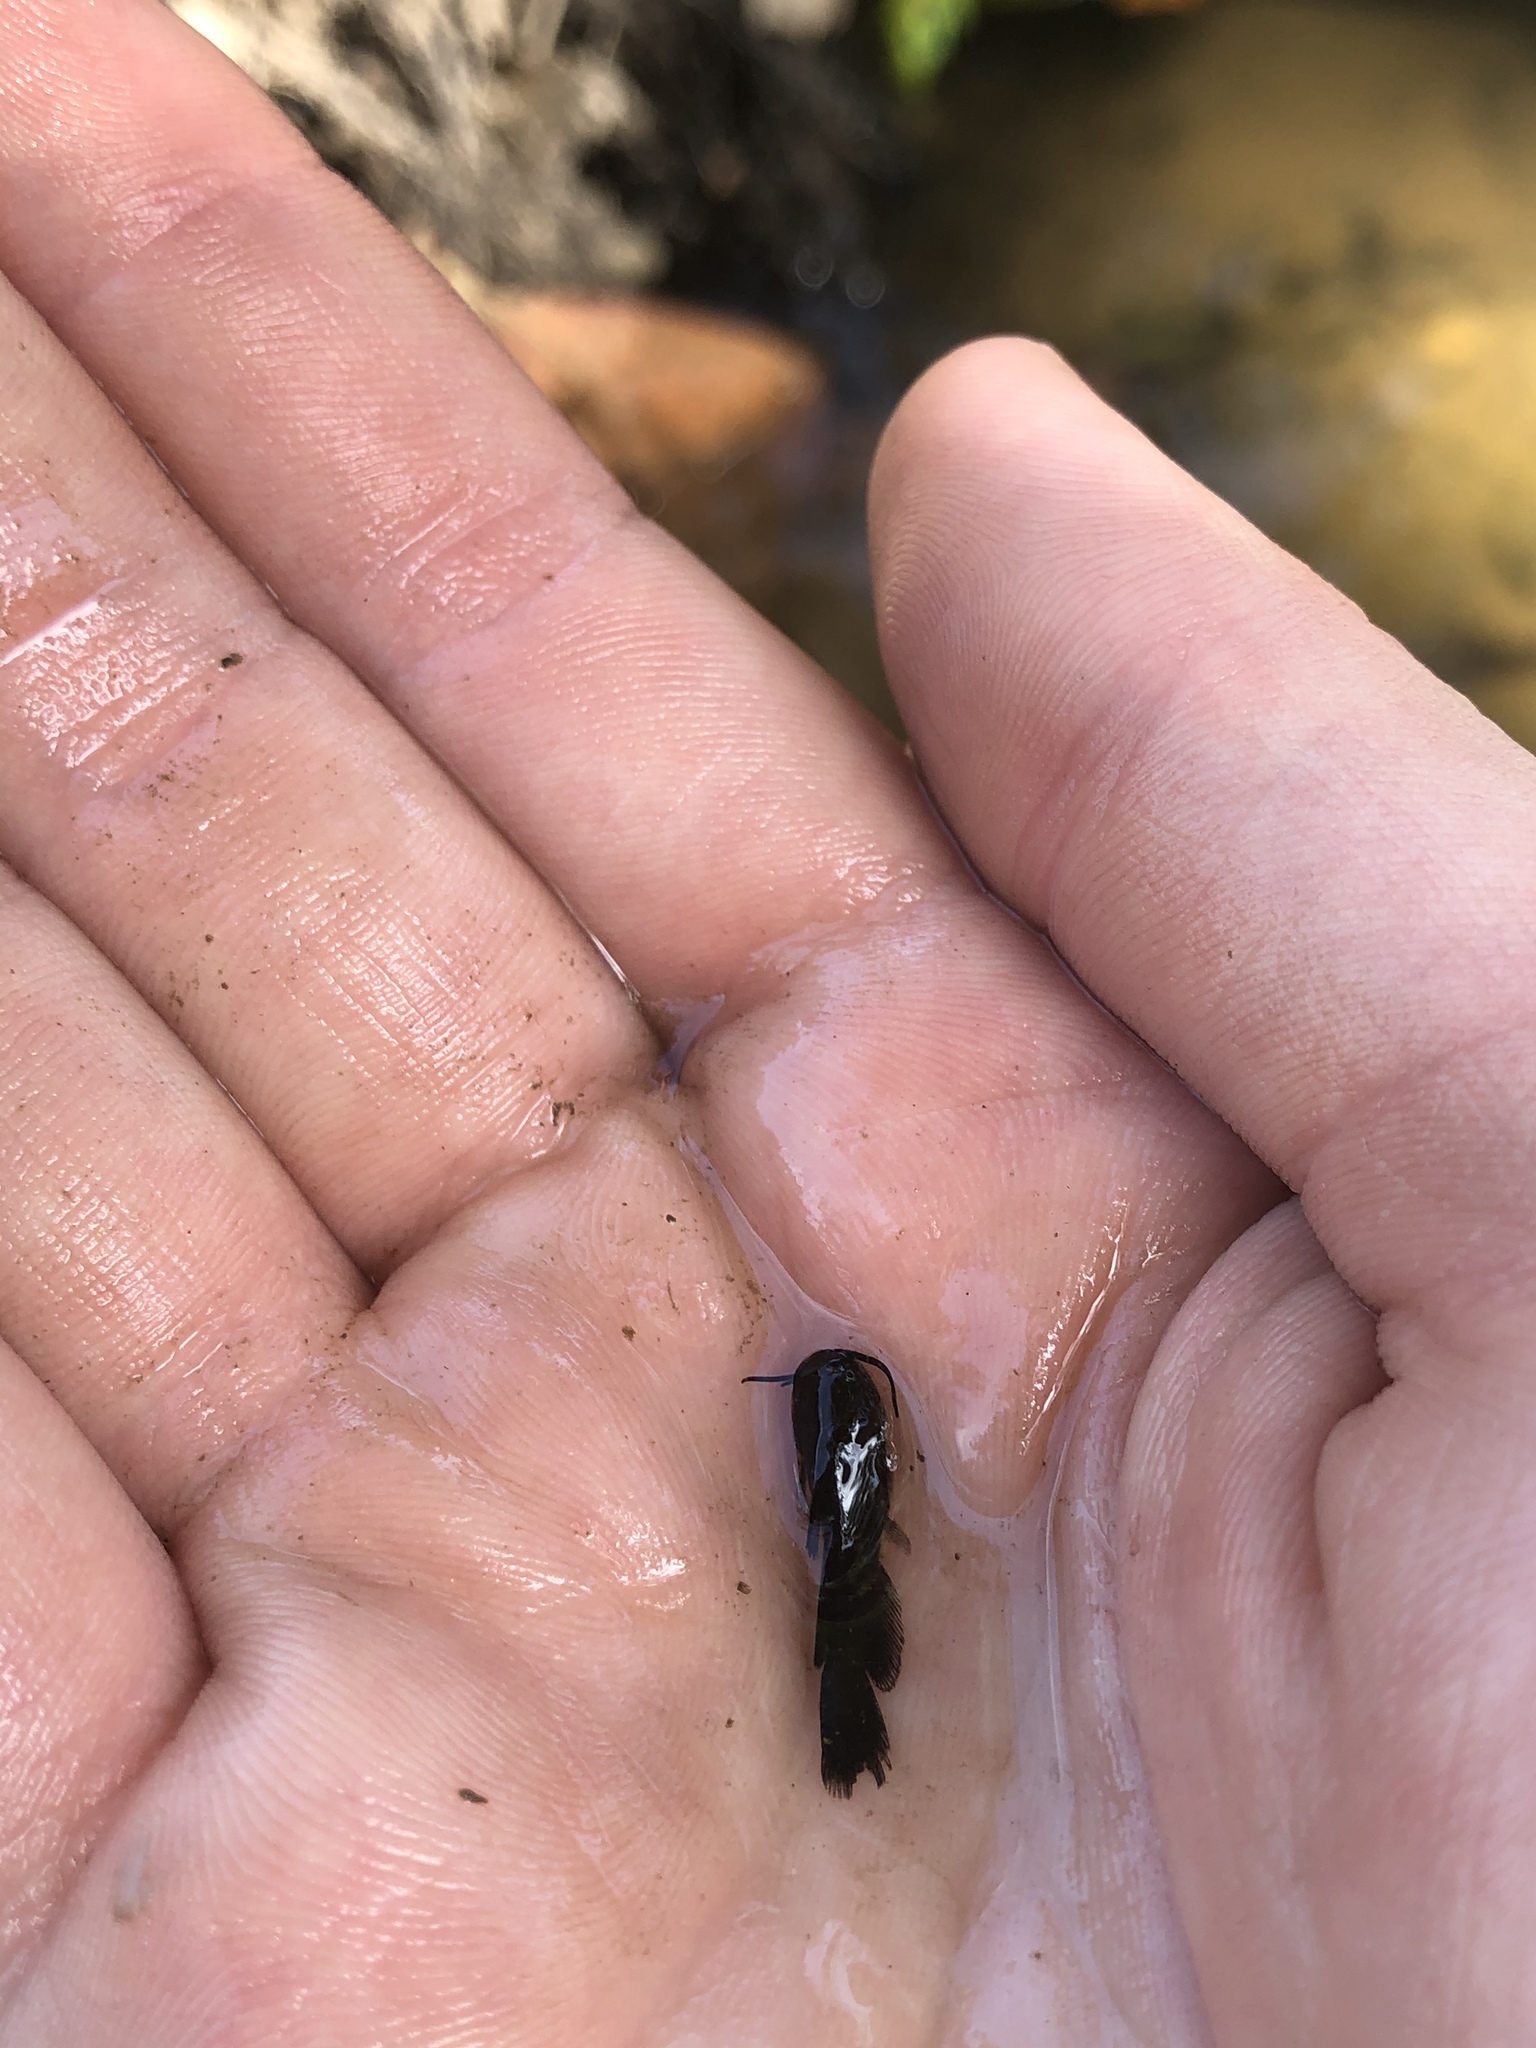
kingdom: Animalia
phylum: Chordata
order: Siluriformes
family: Ictaluridae
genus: Ameiurus
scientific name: Ameiurus
